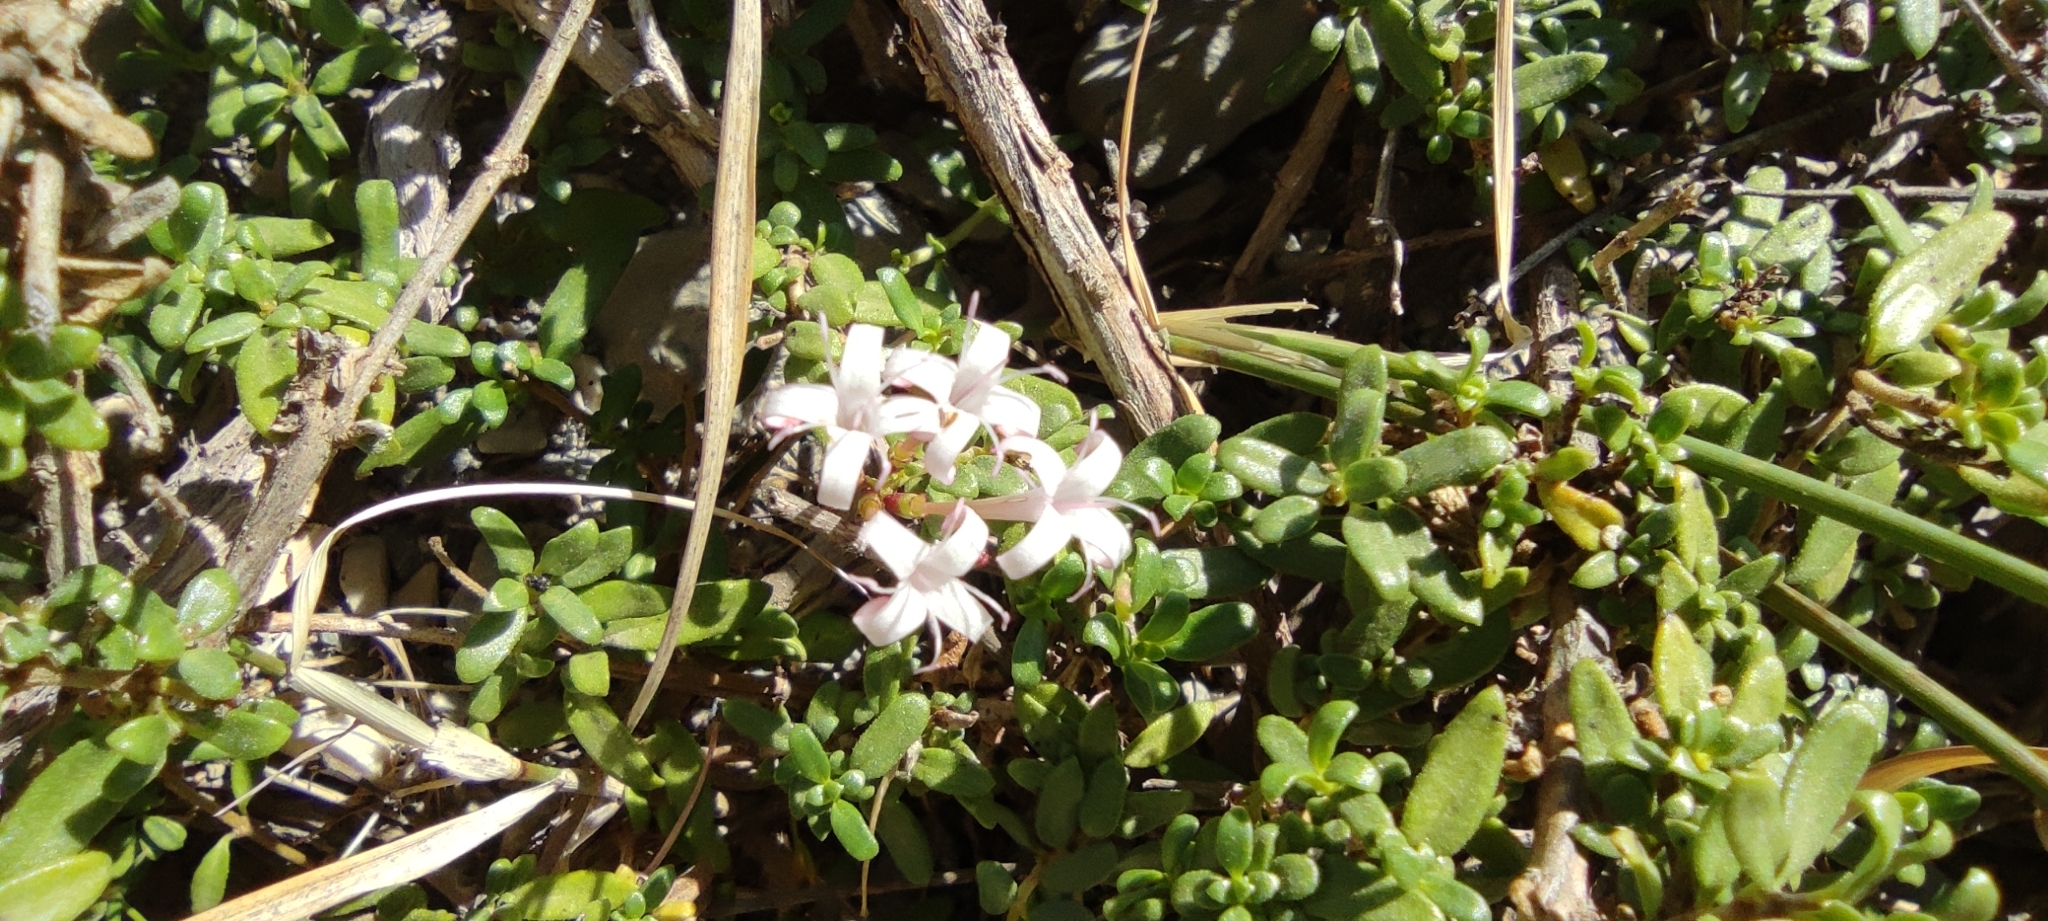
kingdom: Plantae
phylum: Tracheophyta
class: Magnoliopsida
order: Gentianales
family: Rubiaceae
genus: Plocama
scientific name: Plocama calabrica
